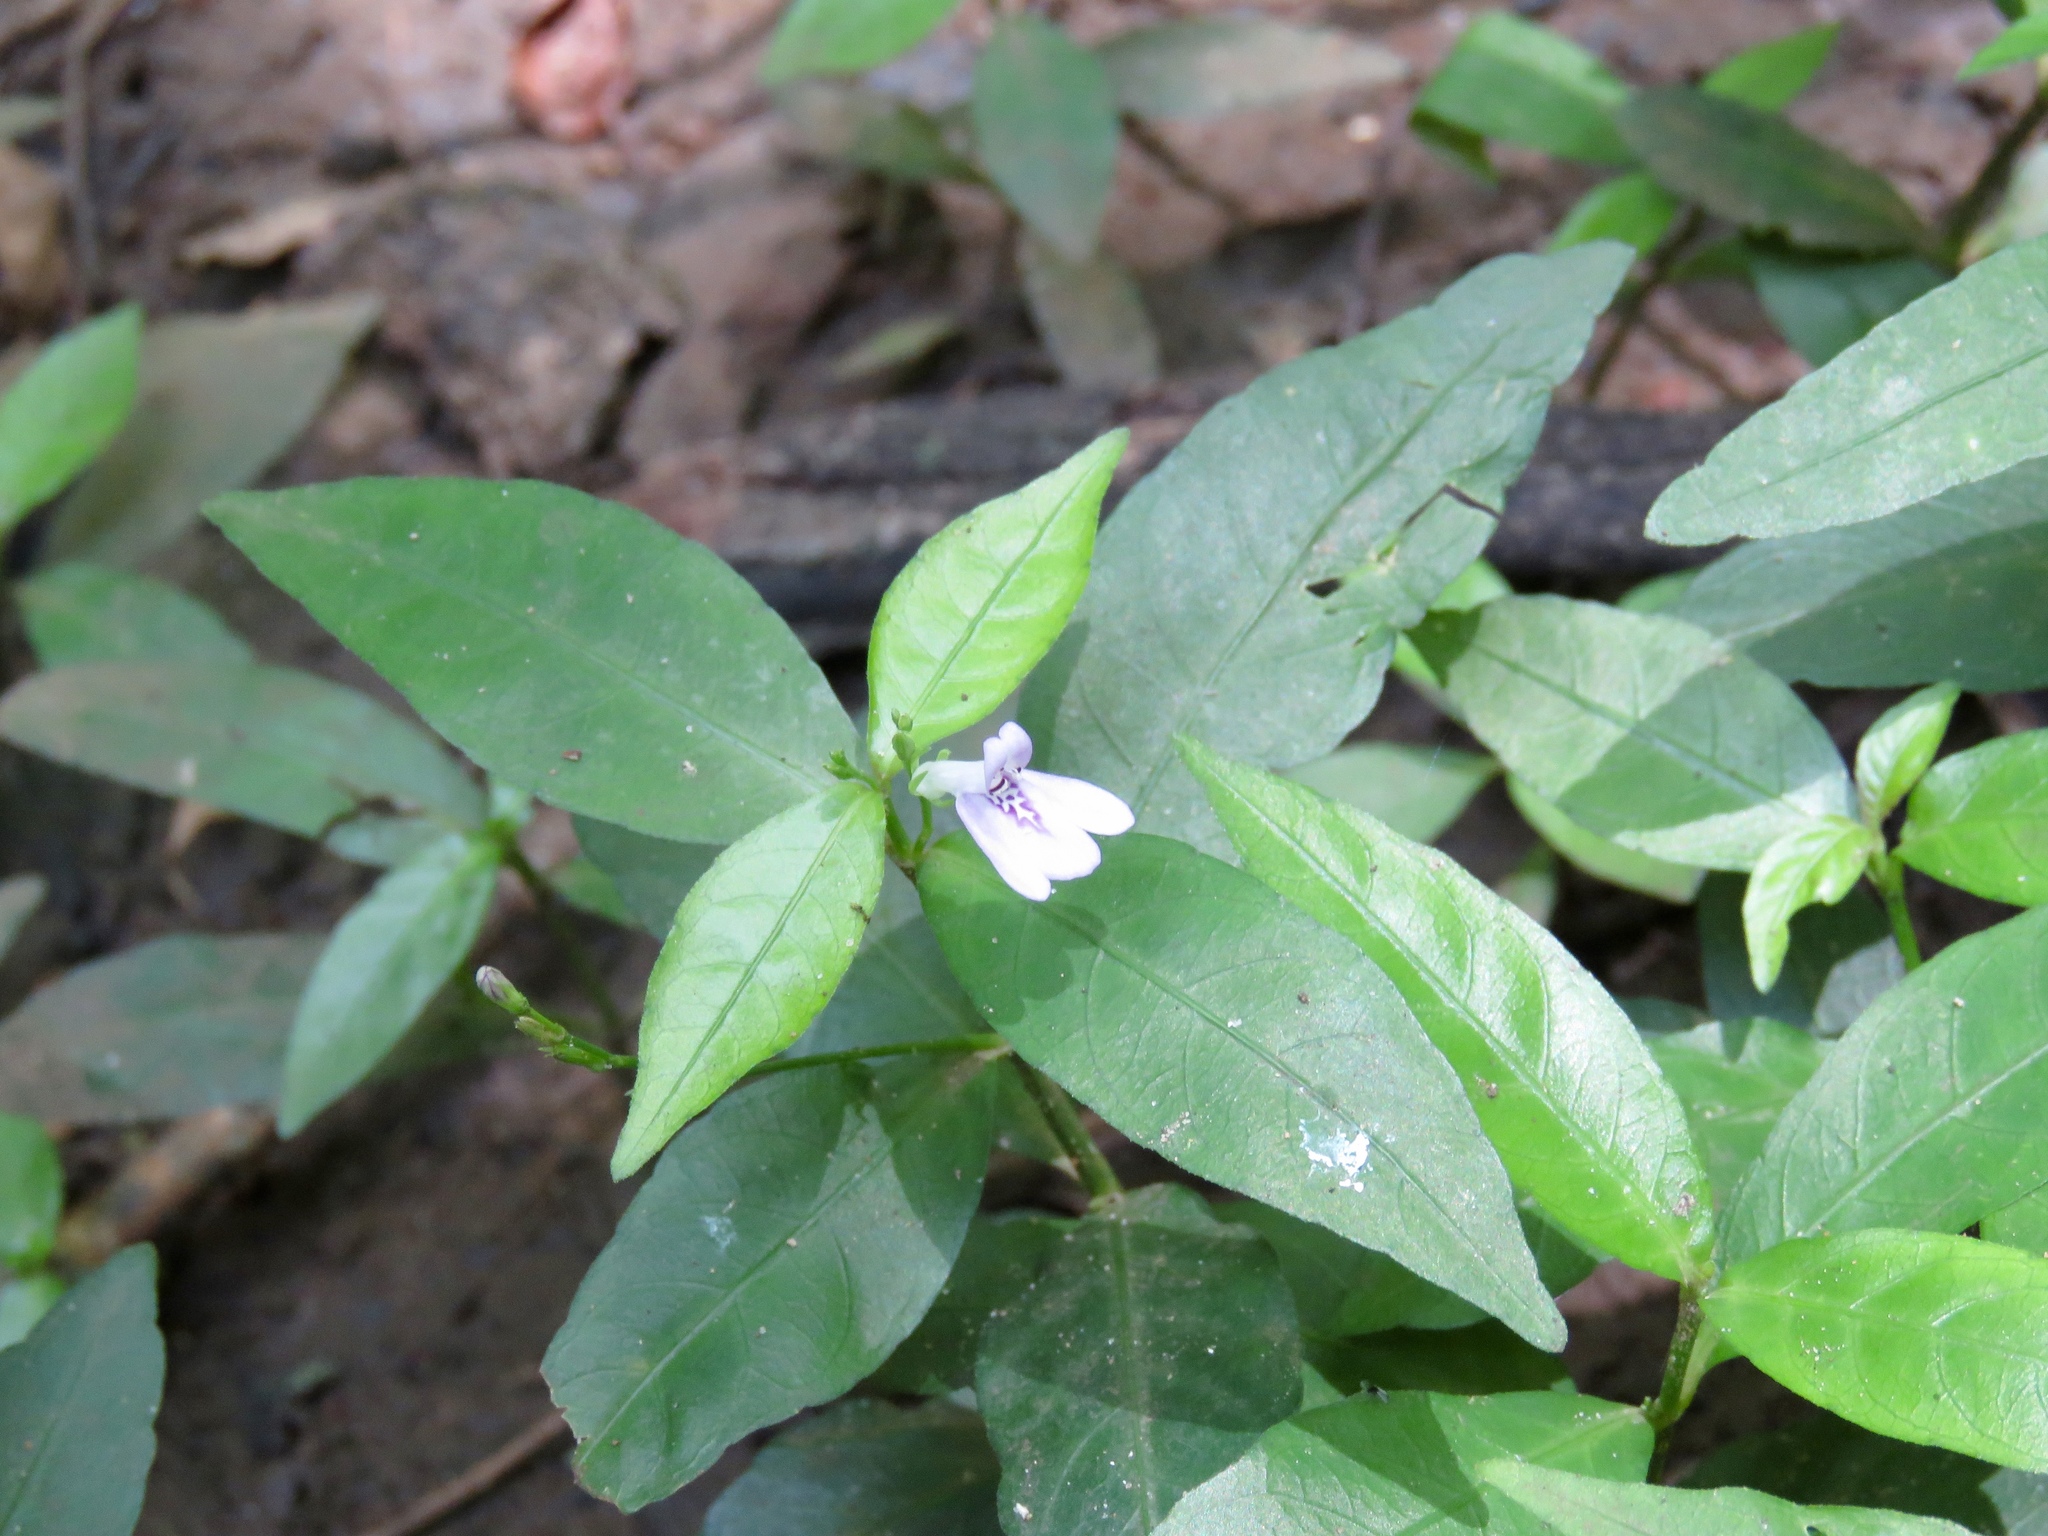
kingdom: Plantae
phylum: Tracheophyta
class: Magnoliopsida
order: Lamiales
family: Acanthaceae
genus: Justicia
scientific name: Justicia lanceolata
